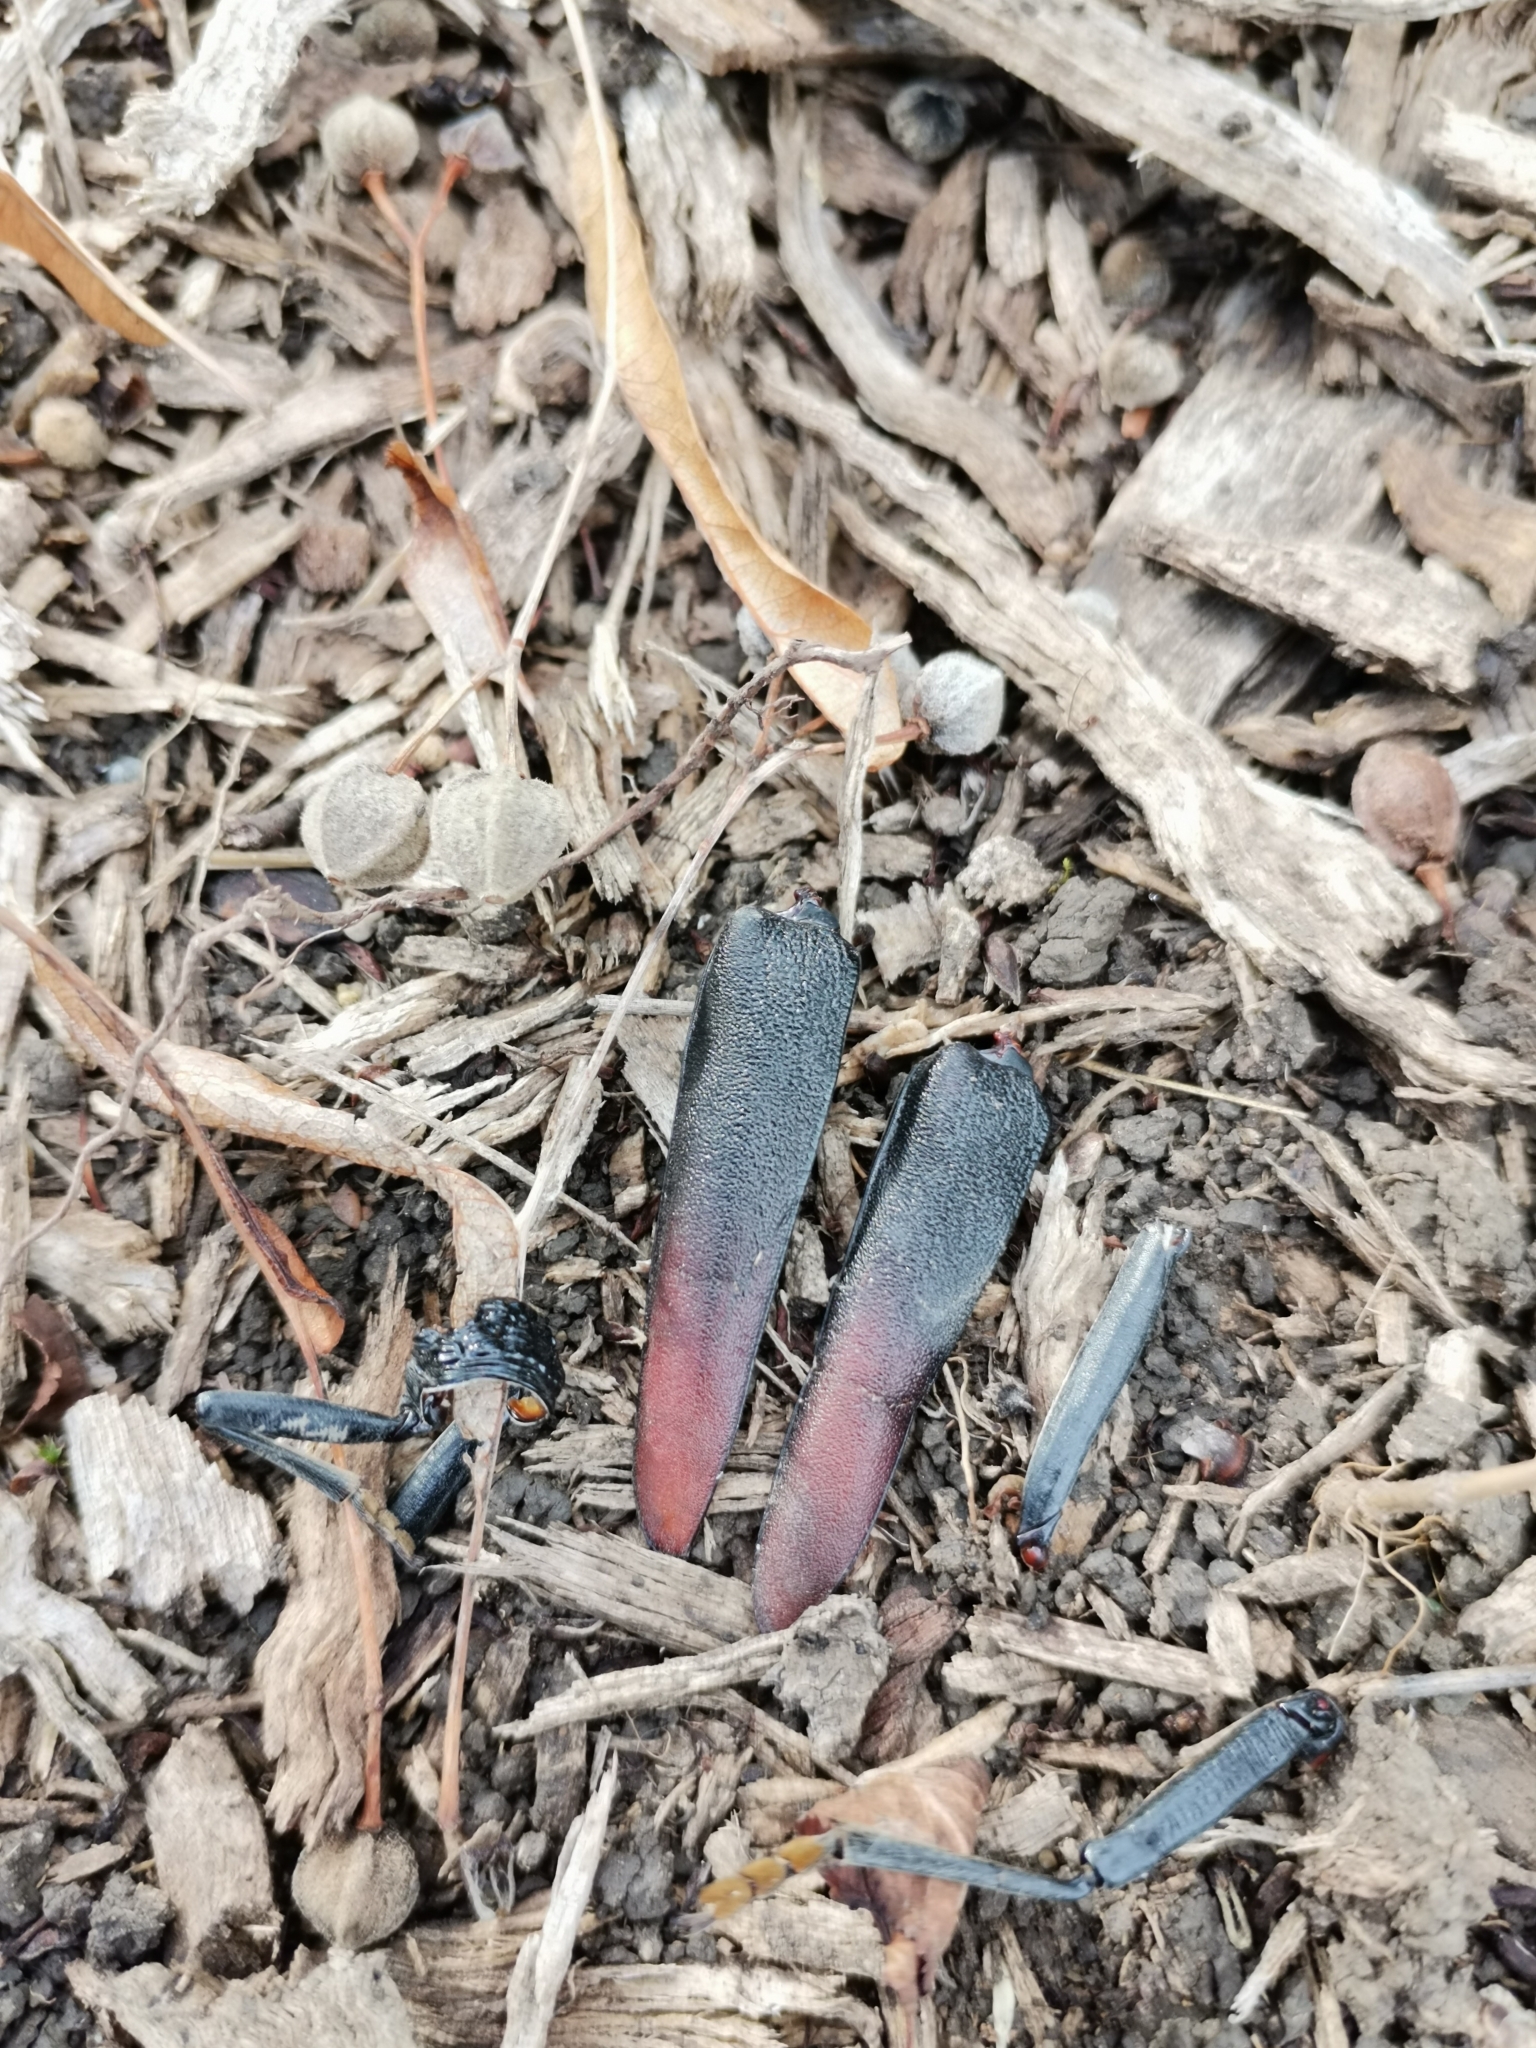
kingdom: Animalia
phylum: Arthropoda
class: Insecta
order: Coleoptera
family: Lucanidae
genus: Lucanus
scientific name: Lucanus cervus
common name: Stag beetle
